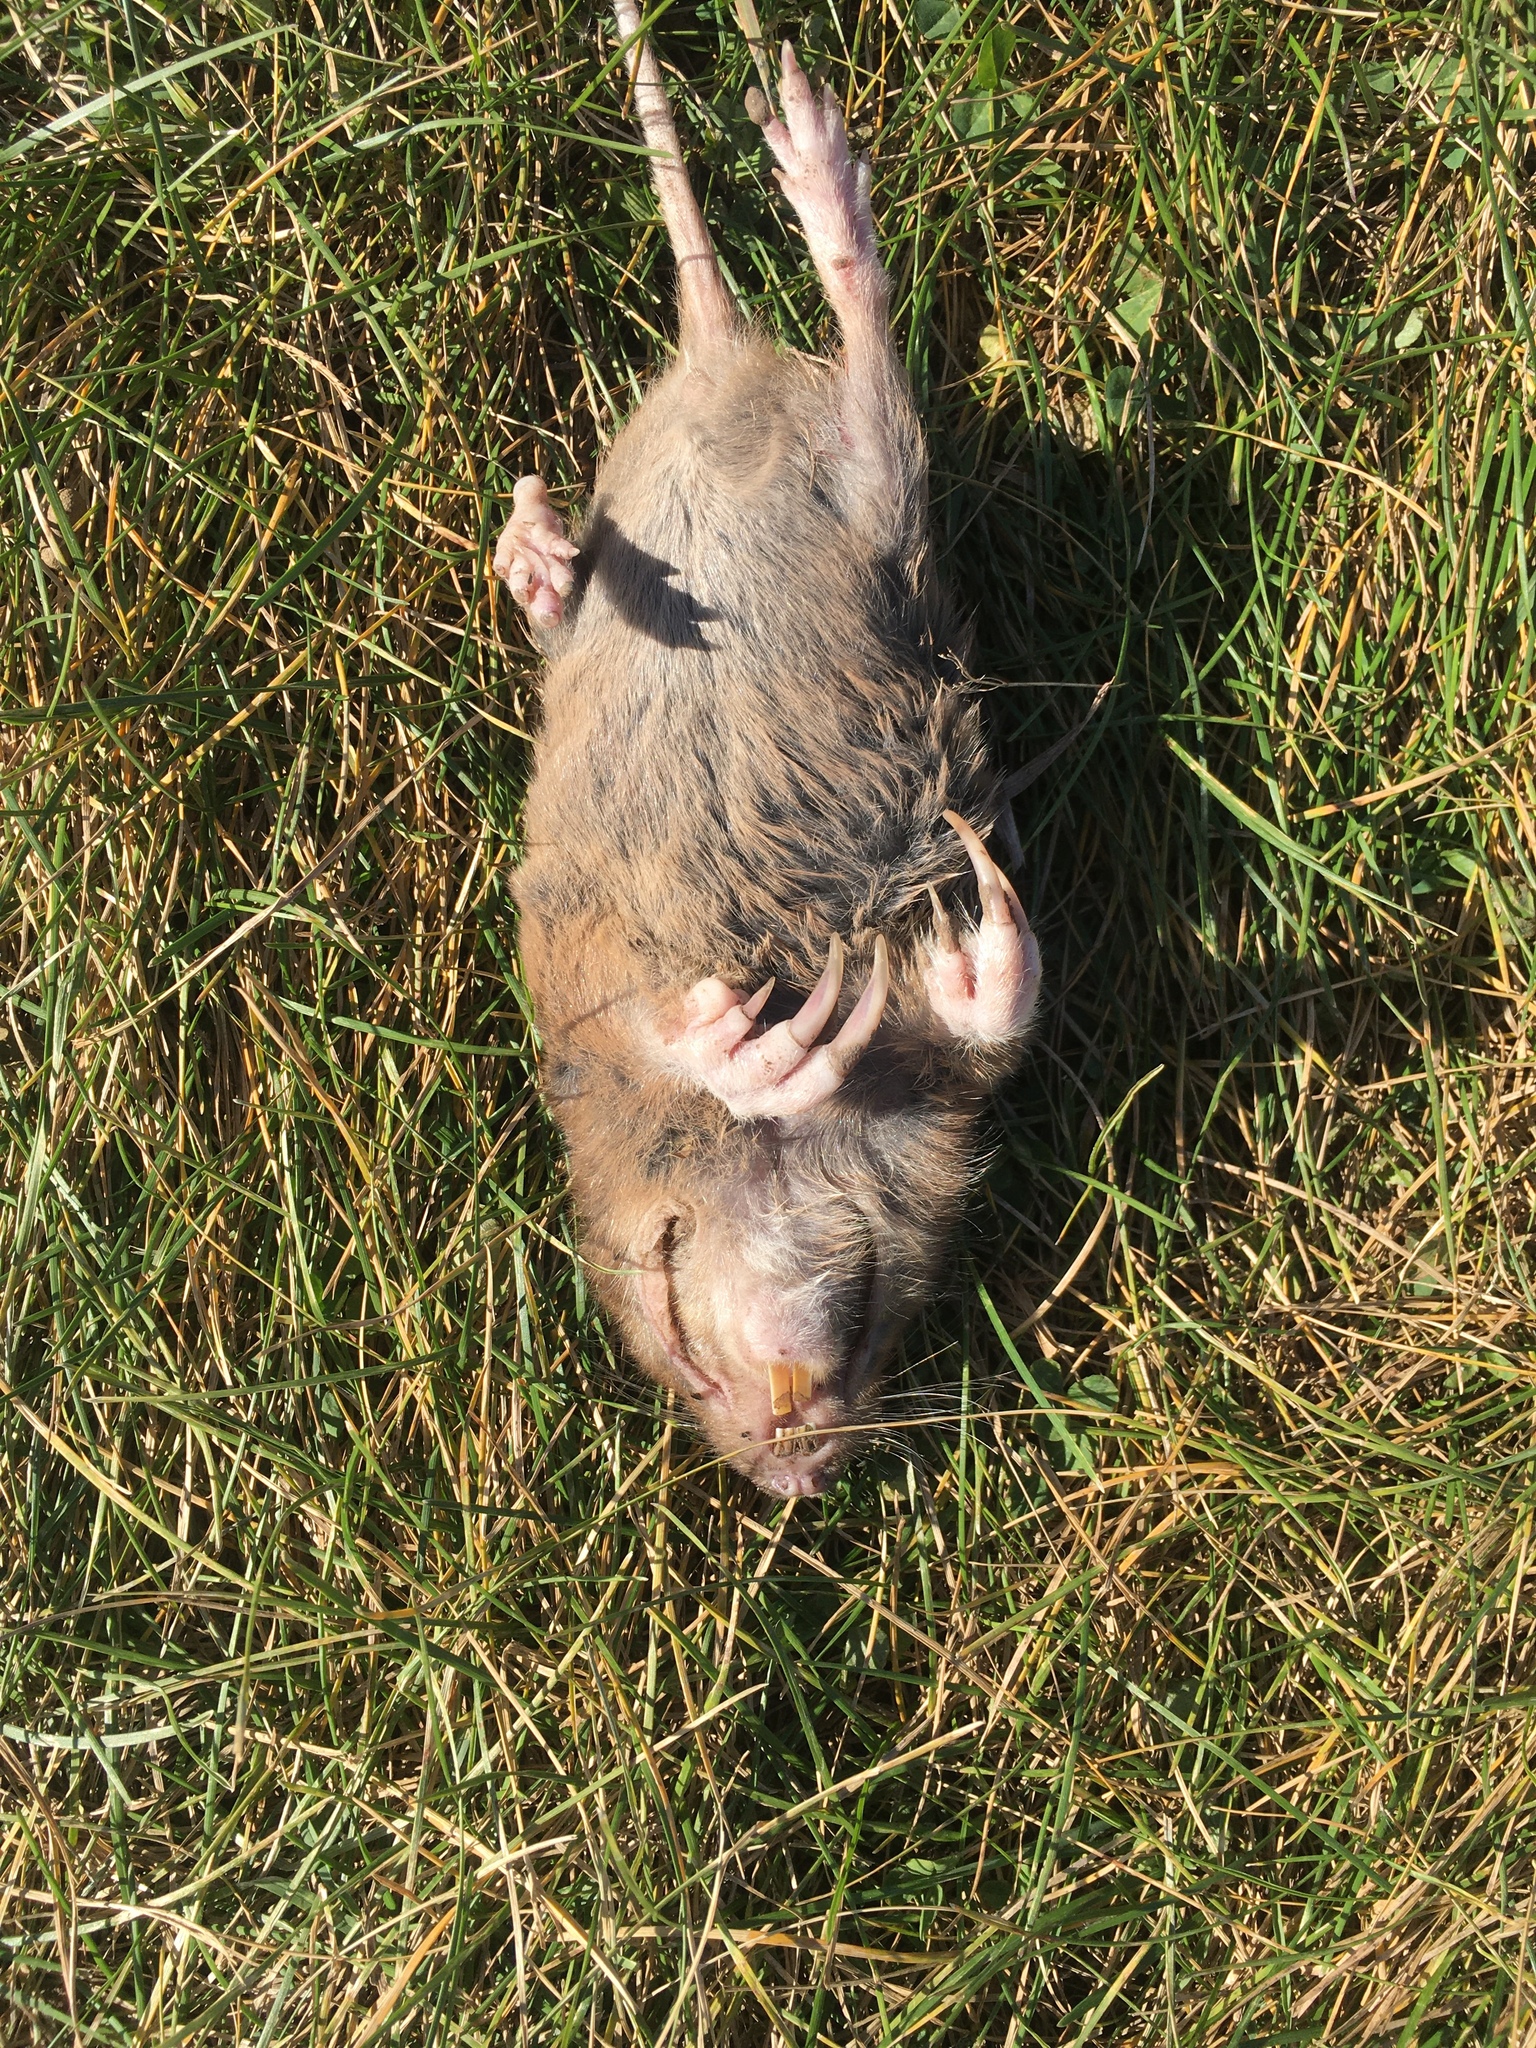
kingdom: Animalia
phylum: Chordata
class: Mammalia
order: Rodentia
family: Geomyidae
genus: Geomys
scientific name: Geomys bursarius
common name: Plains pocket gopher
